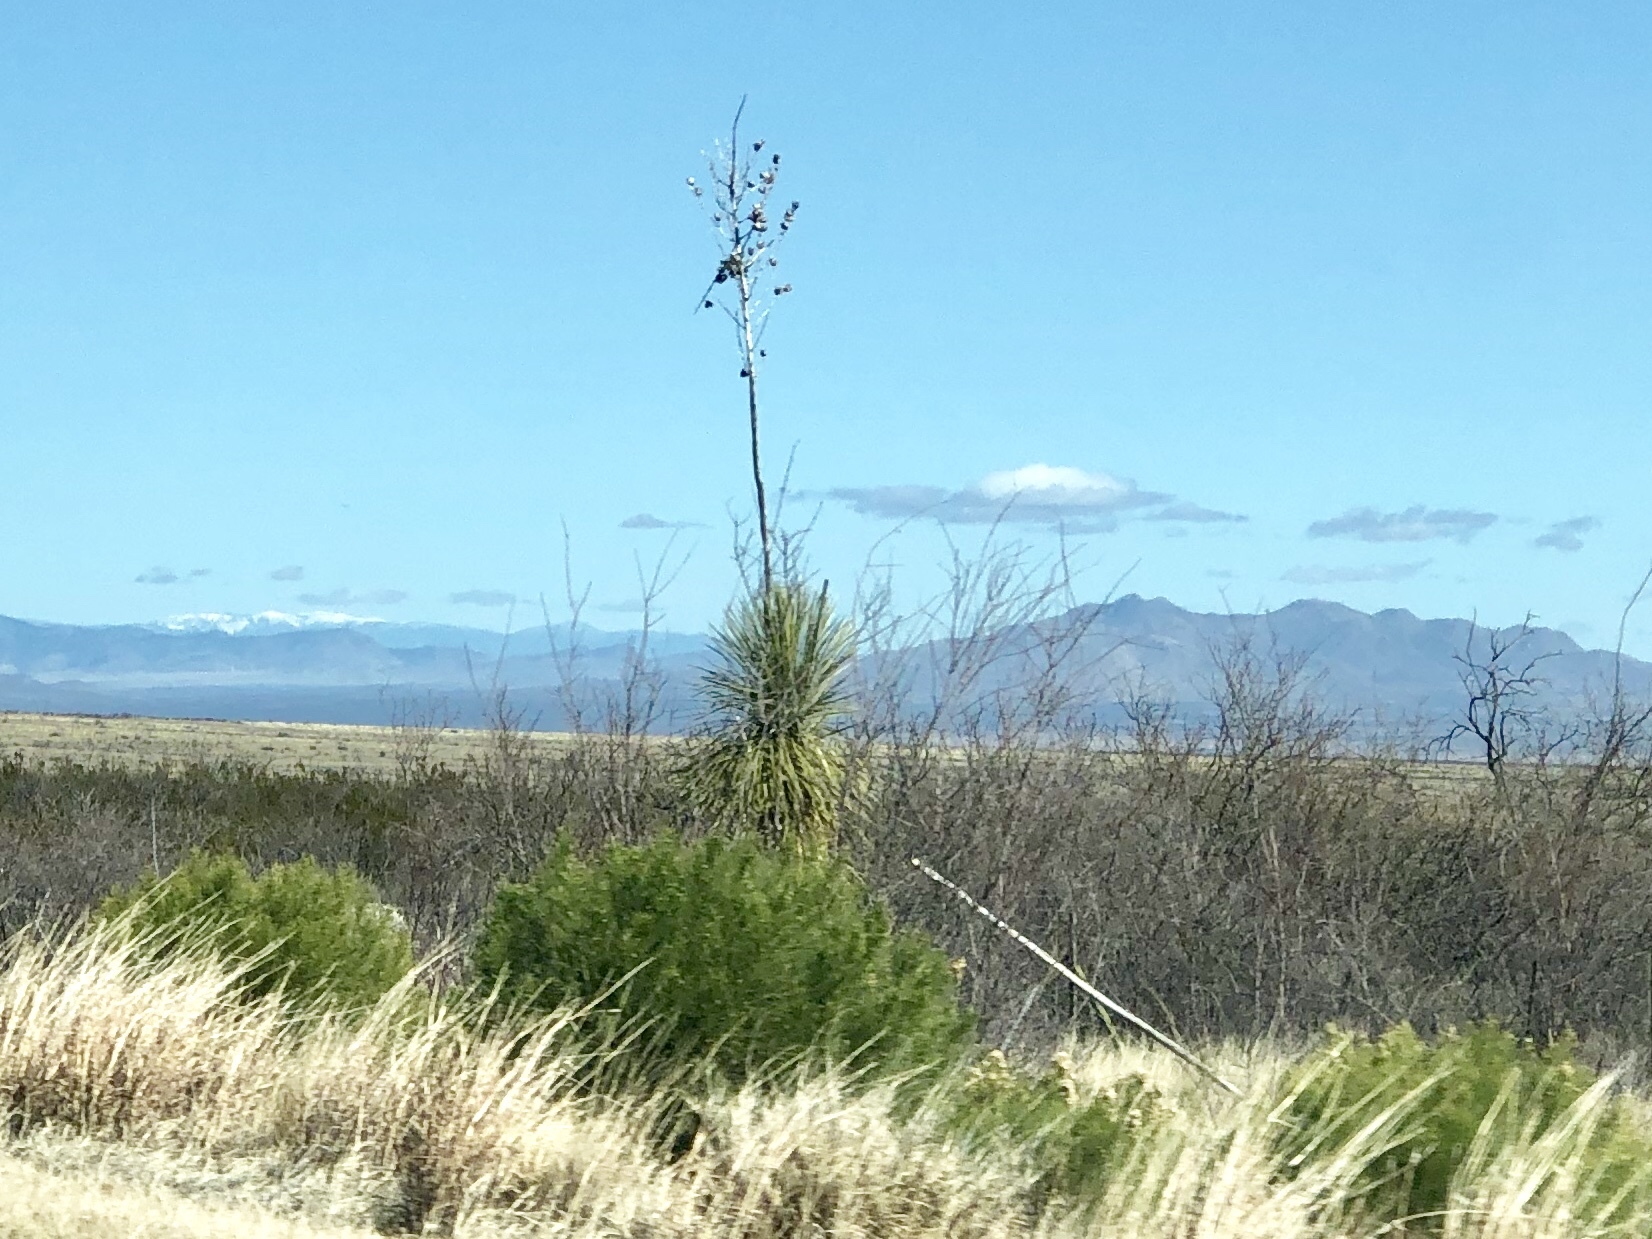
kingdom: Plantae
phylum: Tracheophyta
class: Liliopsida
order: Asparagales
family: Asparagaceae
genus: Yucca
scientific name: Yucca elata
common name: Palmella
